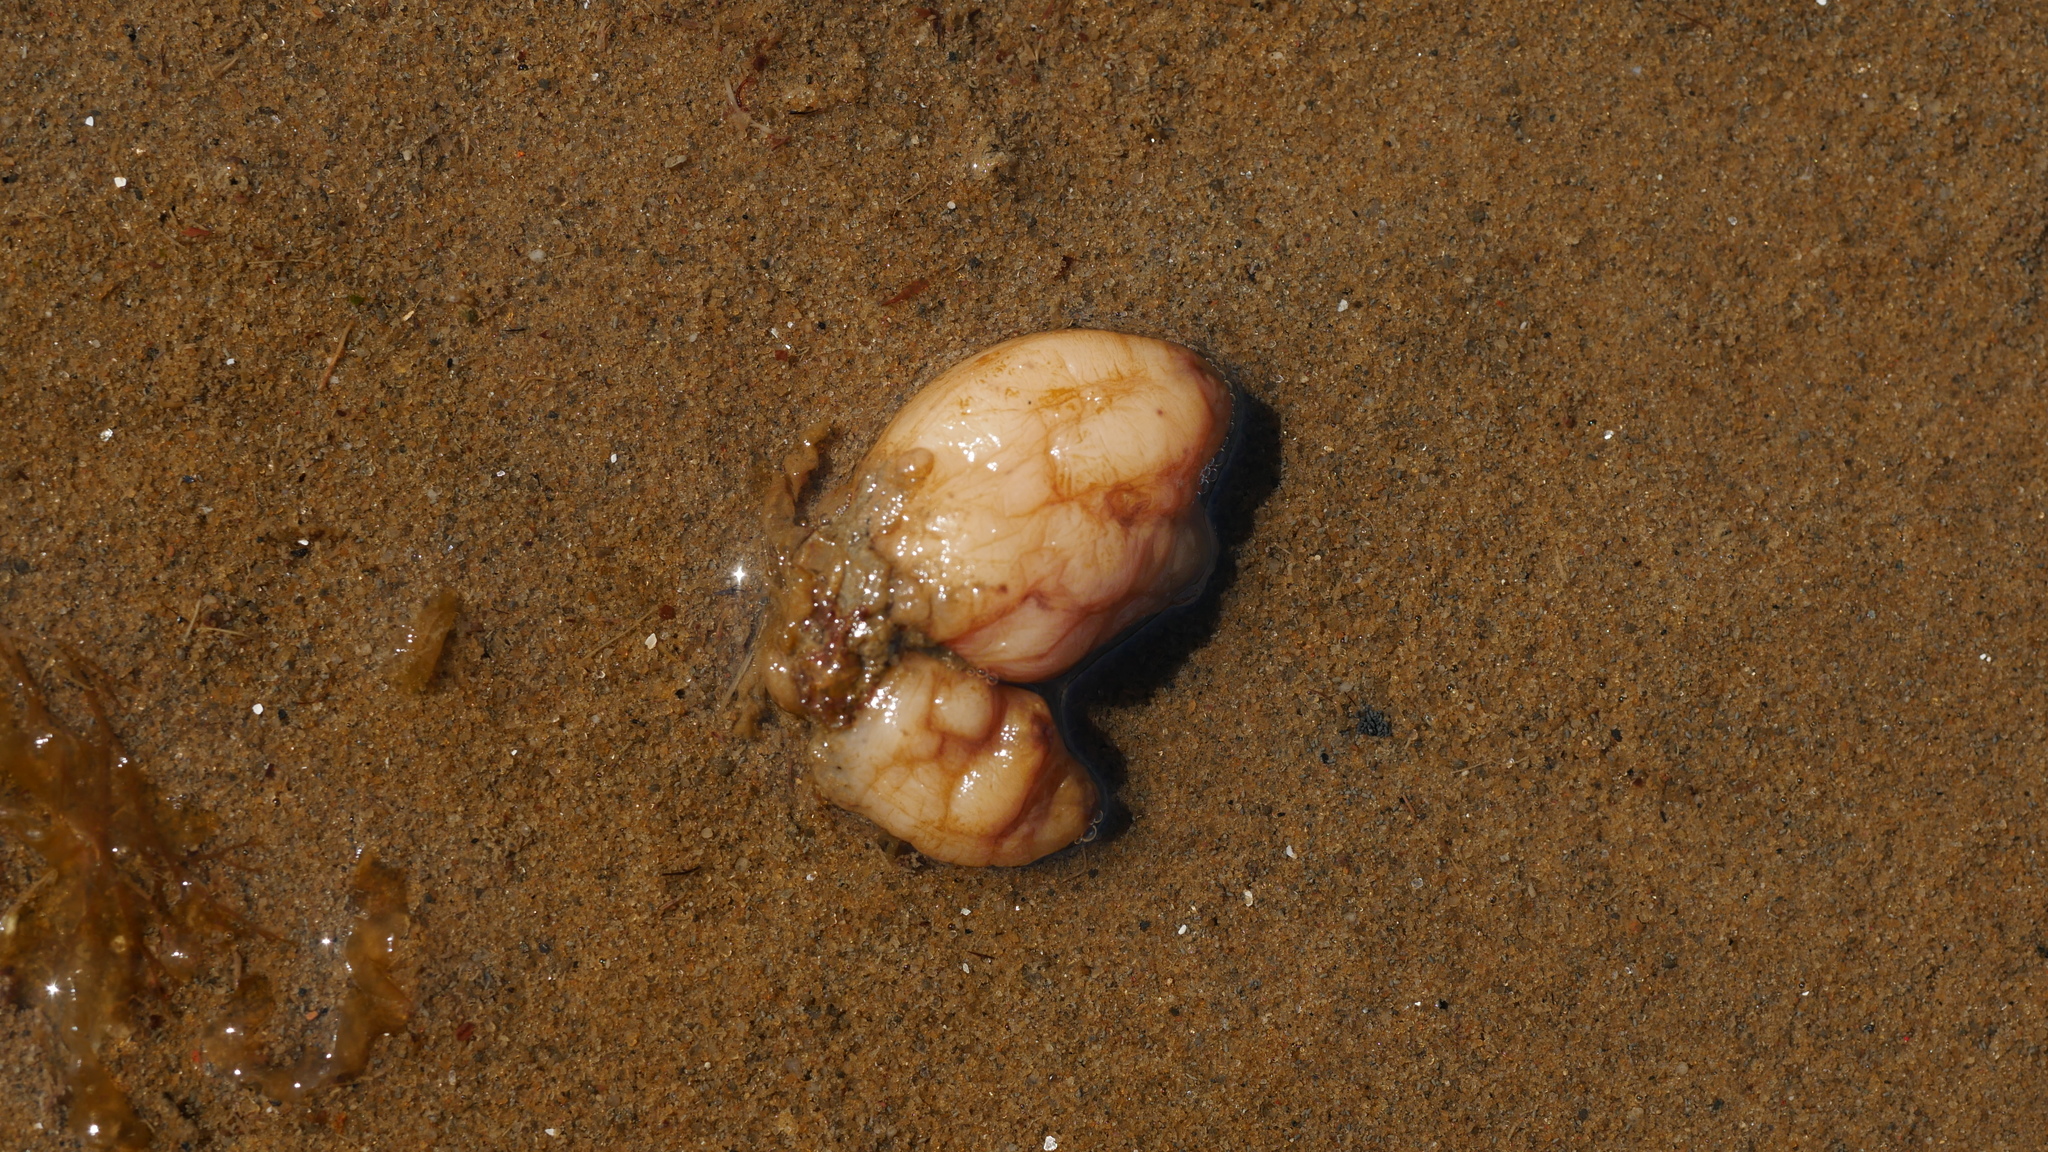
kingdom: Animalia
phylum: Chordata
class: Ascidiacea
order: Stolidobranchia
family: Styelidae
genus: Styela
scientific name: Styela plicata
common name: Pleated tunicate
